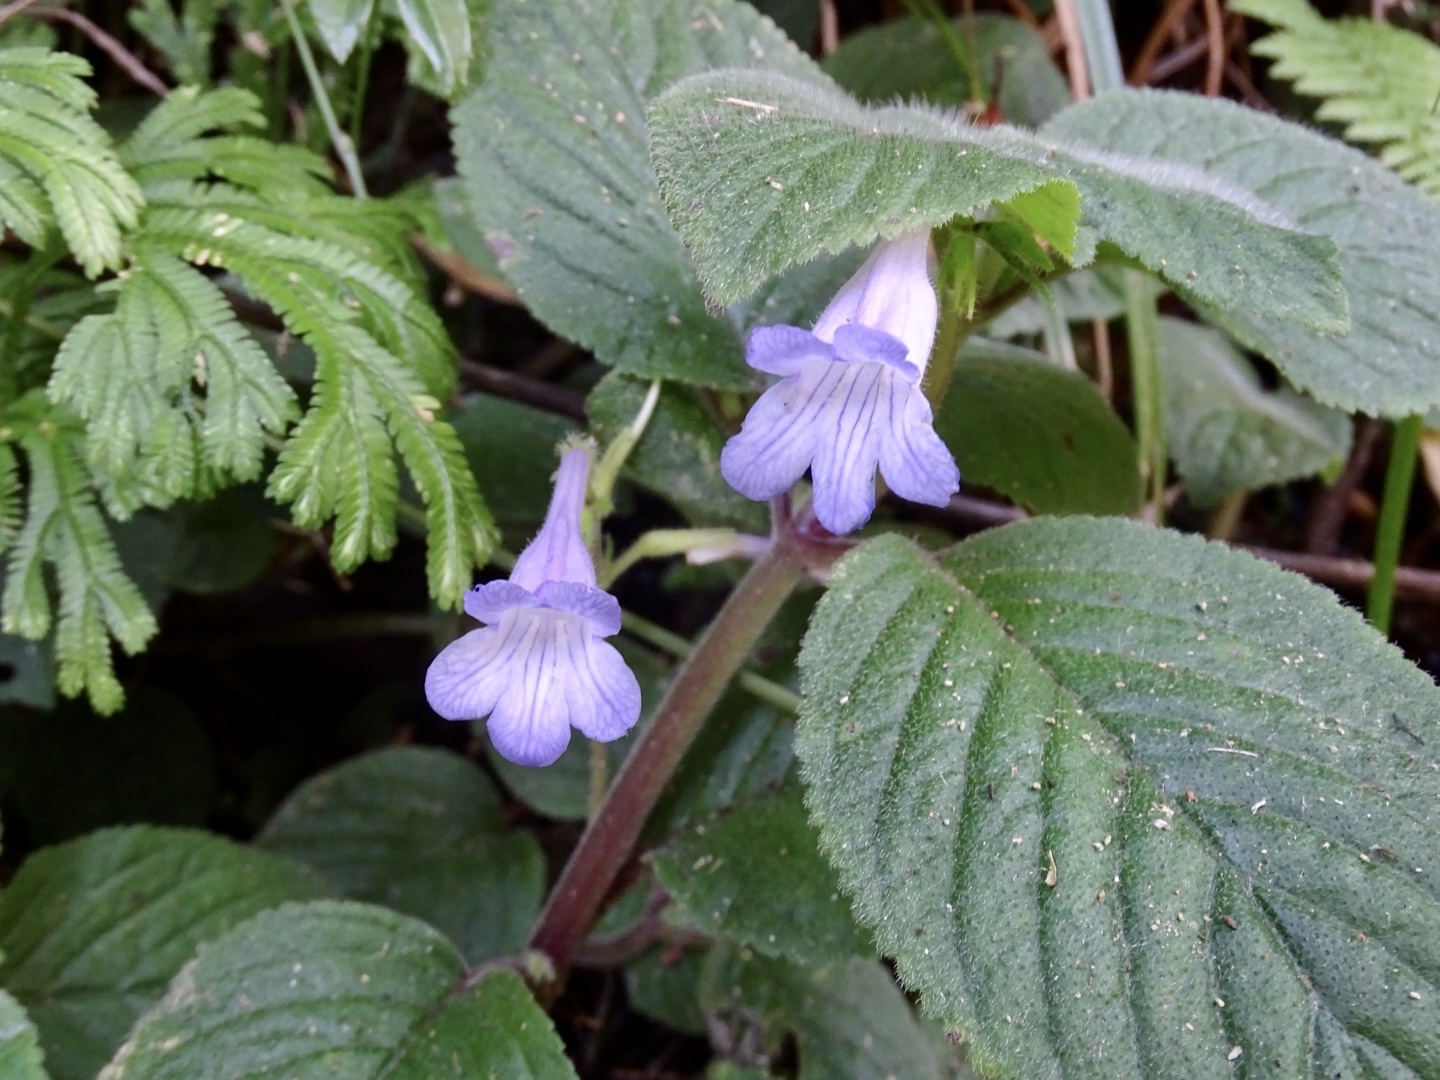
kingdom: Plantae
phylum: Tracheophyta
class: Magnoliopsida
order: Lamiales
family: Gesneriaceae
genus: Didymostigma
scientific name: Didymostigma obtusum
